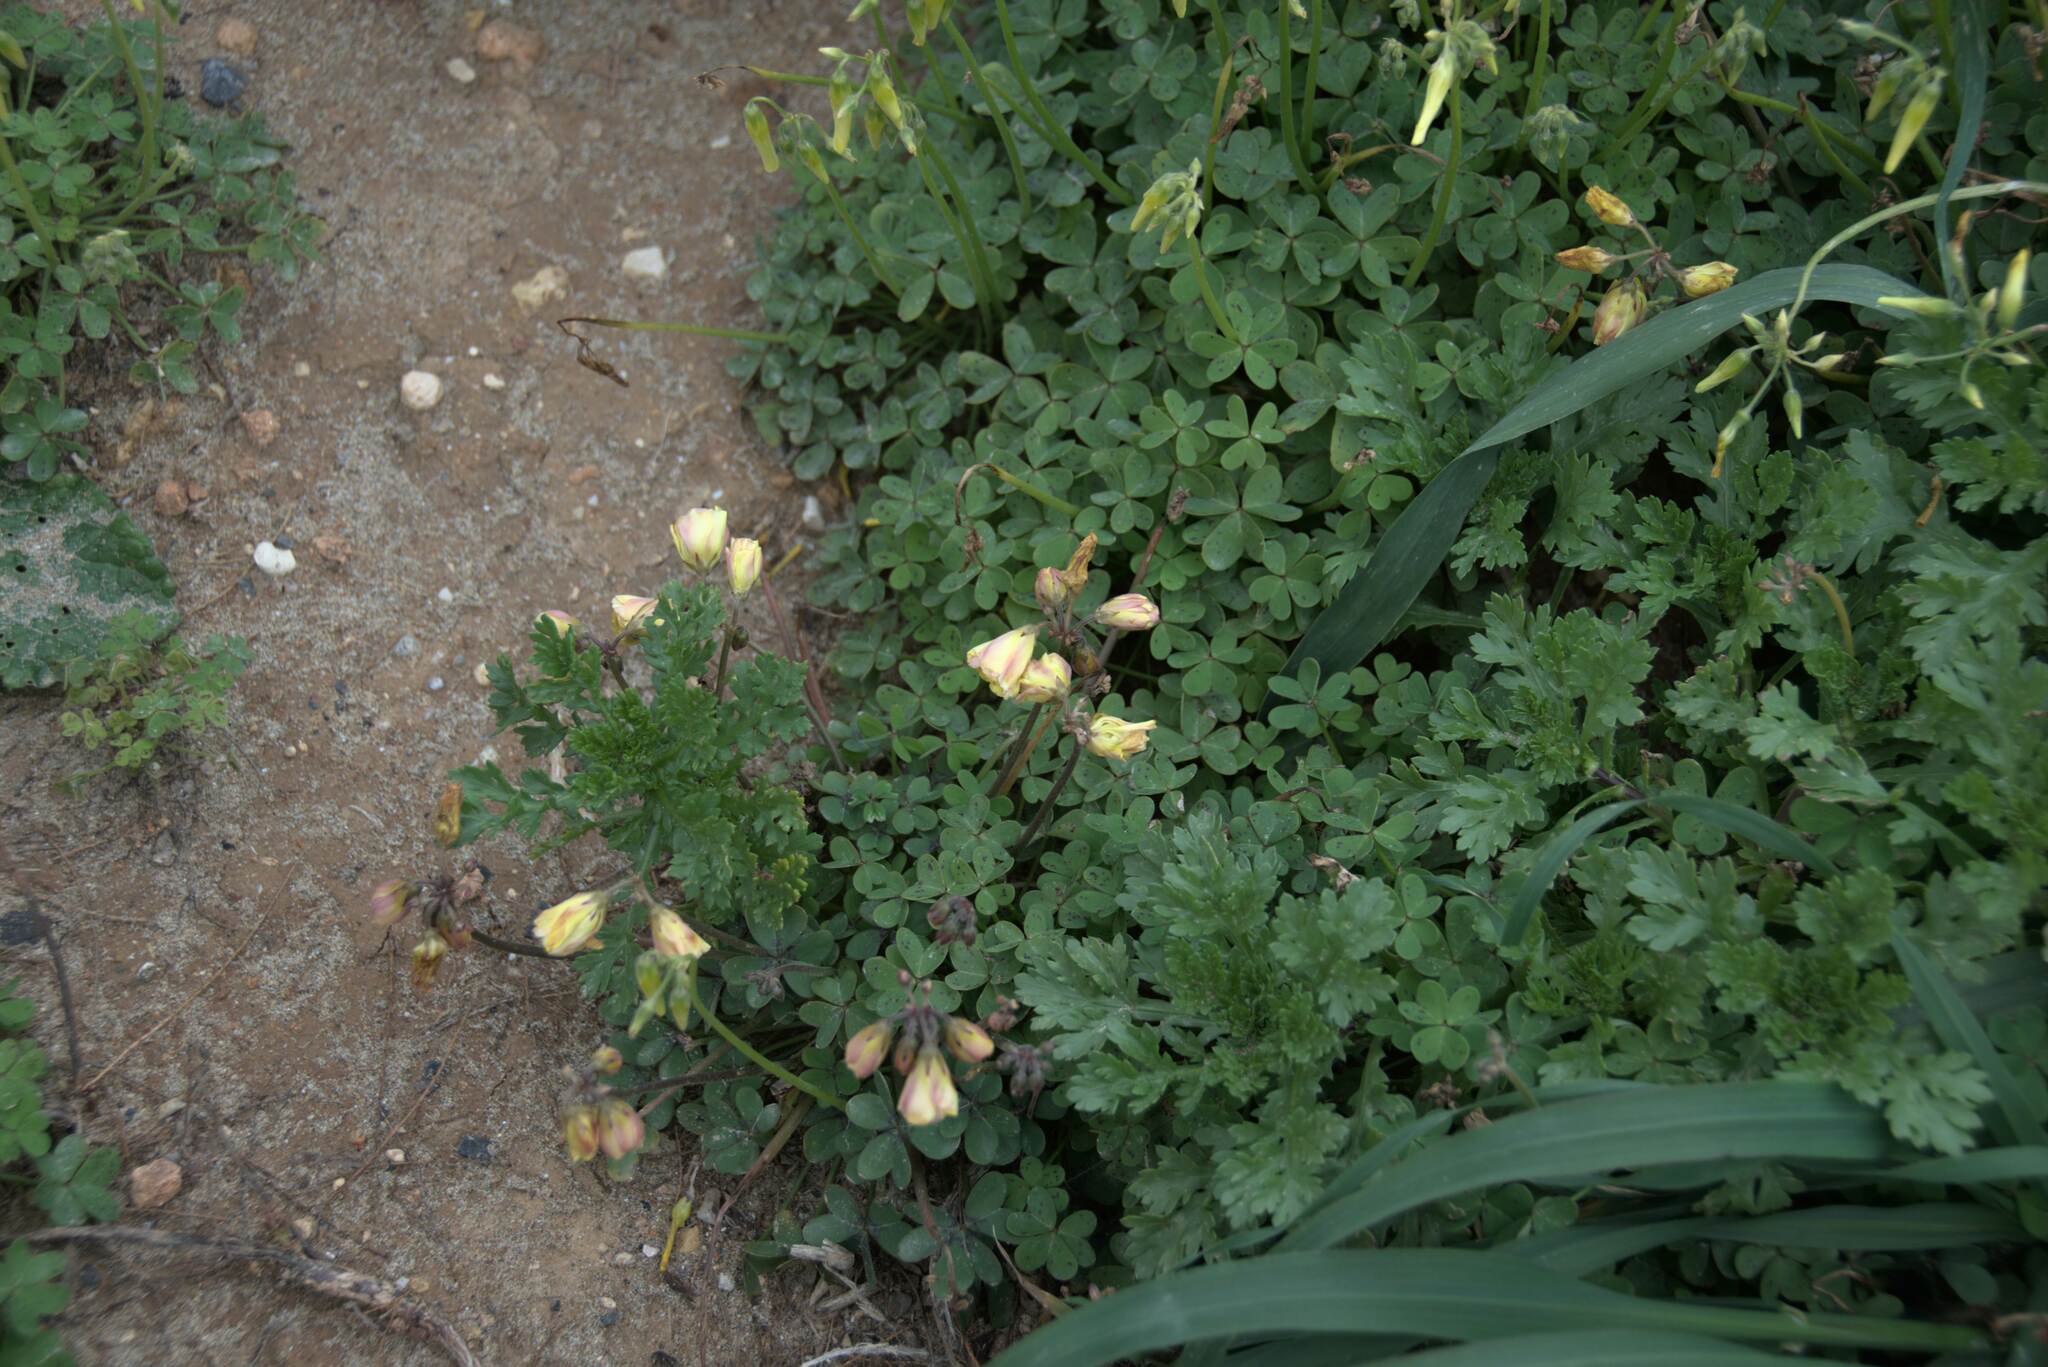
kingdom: Plantae
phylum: Tracheophyta
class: Magnoliopsida
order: Oxalidales
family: Oxalidaceae
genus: Oxalis
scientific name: Oxalis pes-caprae
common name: Bermuda-buttercup
